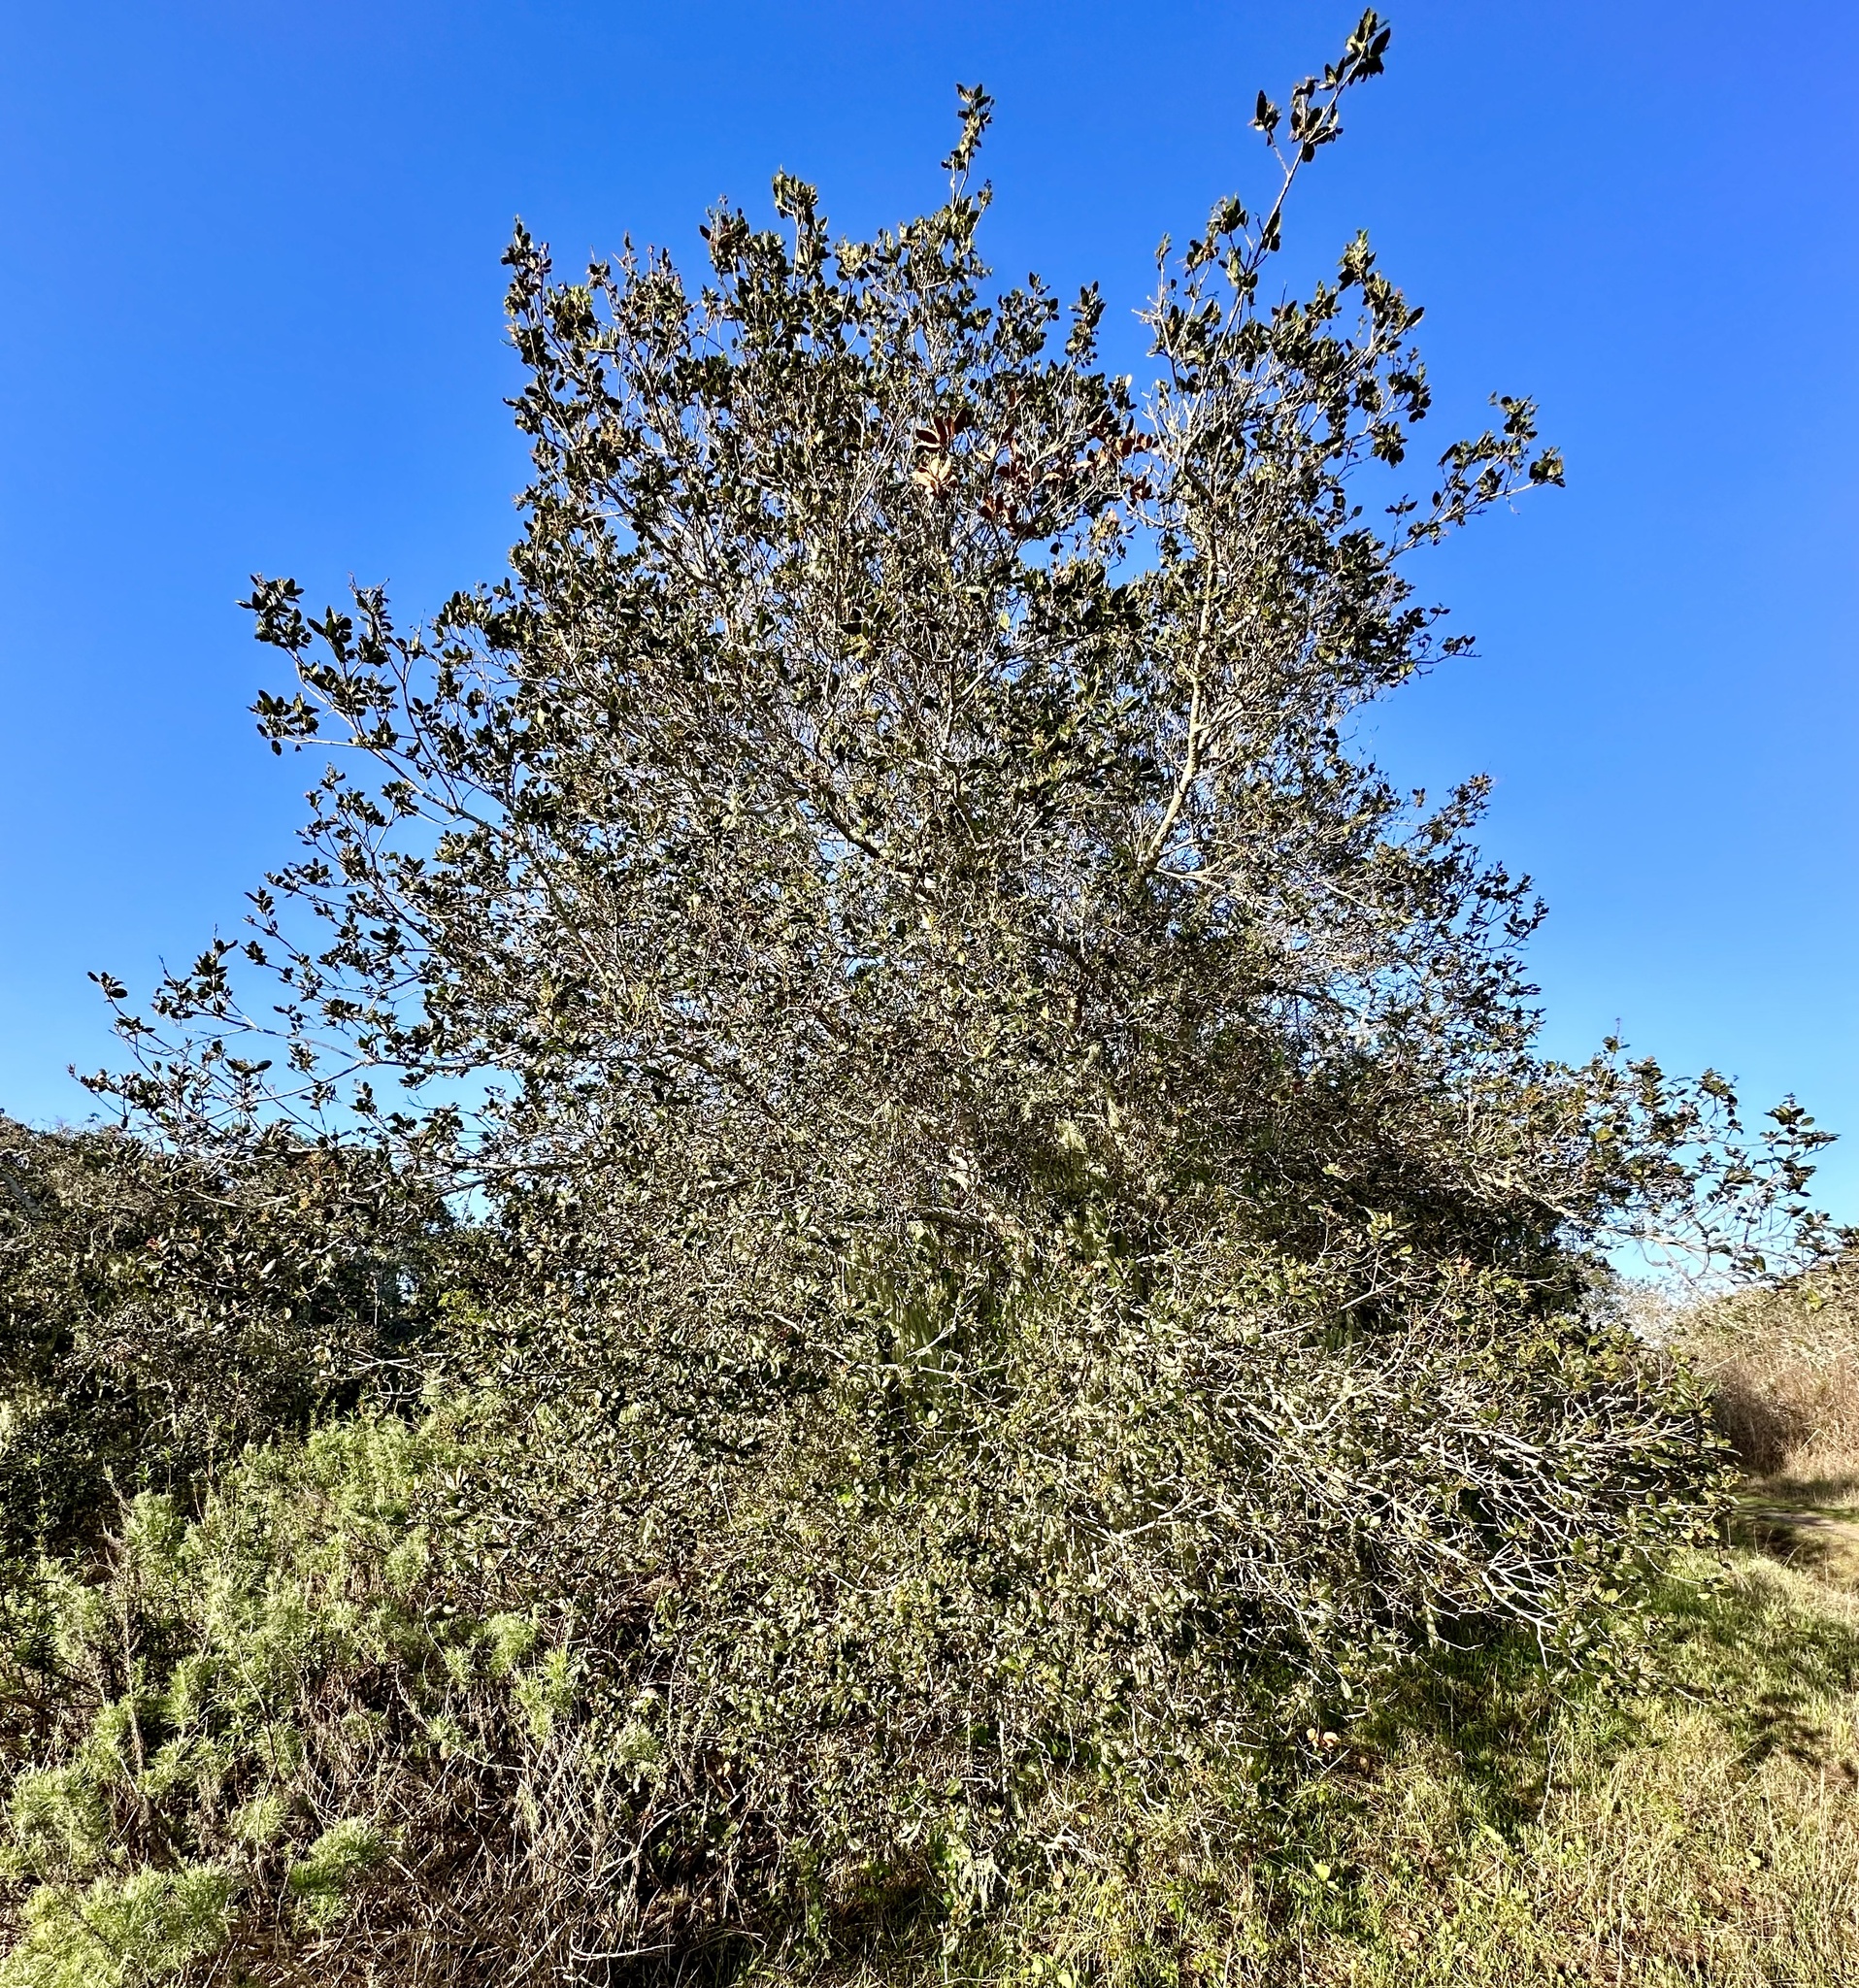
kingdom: Animalia
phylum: Arthropoda
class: Insecta
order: Hymenoptera
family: Cynipidae
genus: Dryocosmus
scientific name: Dryocosmus
